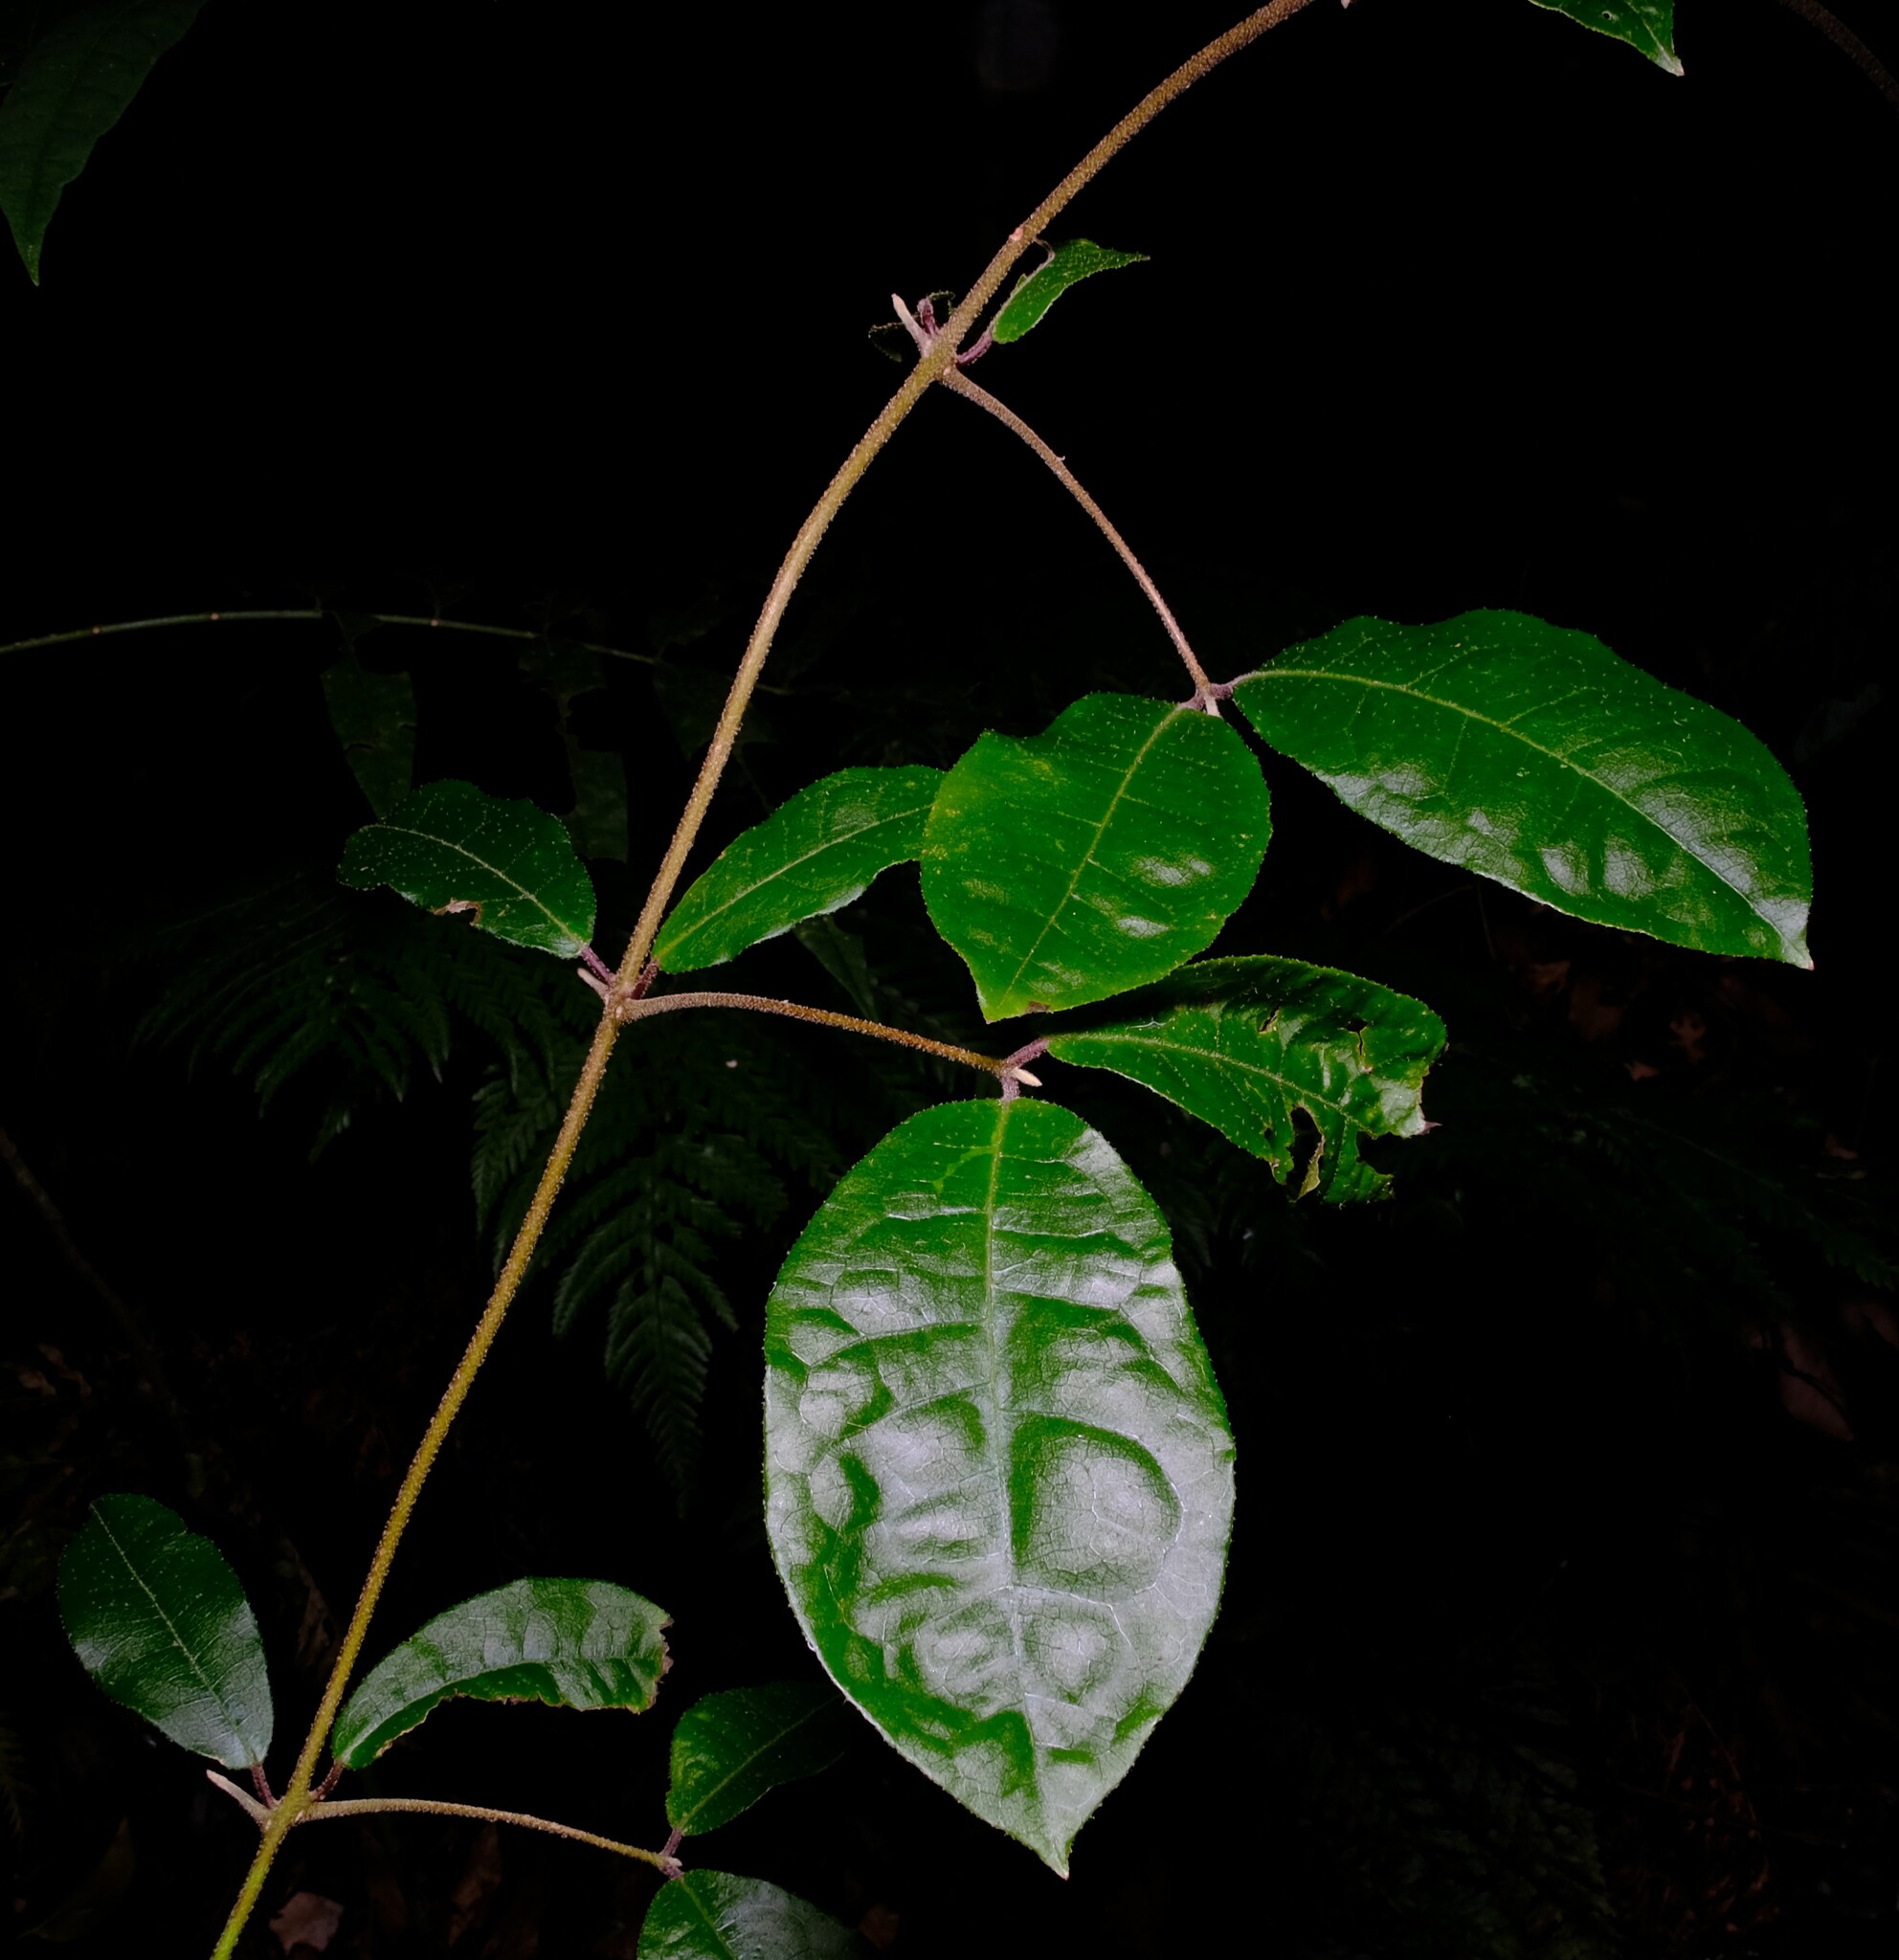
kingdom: Plantae
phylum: Tracheophyta
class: Magnoliopsida
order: Laurales
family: Monimiaceae
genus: Palmeria
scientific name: Palmeria scandens
